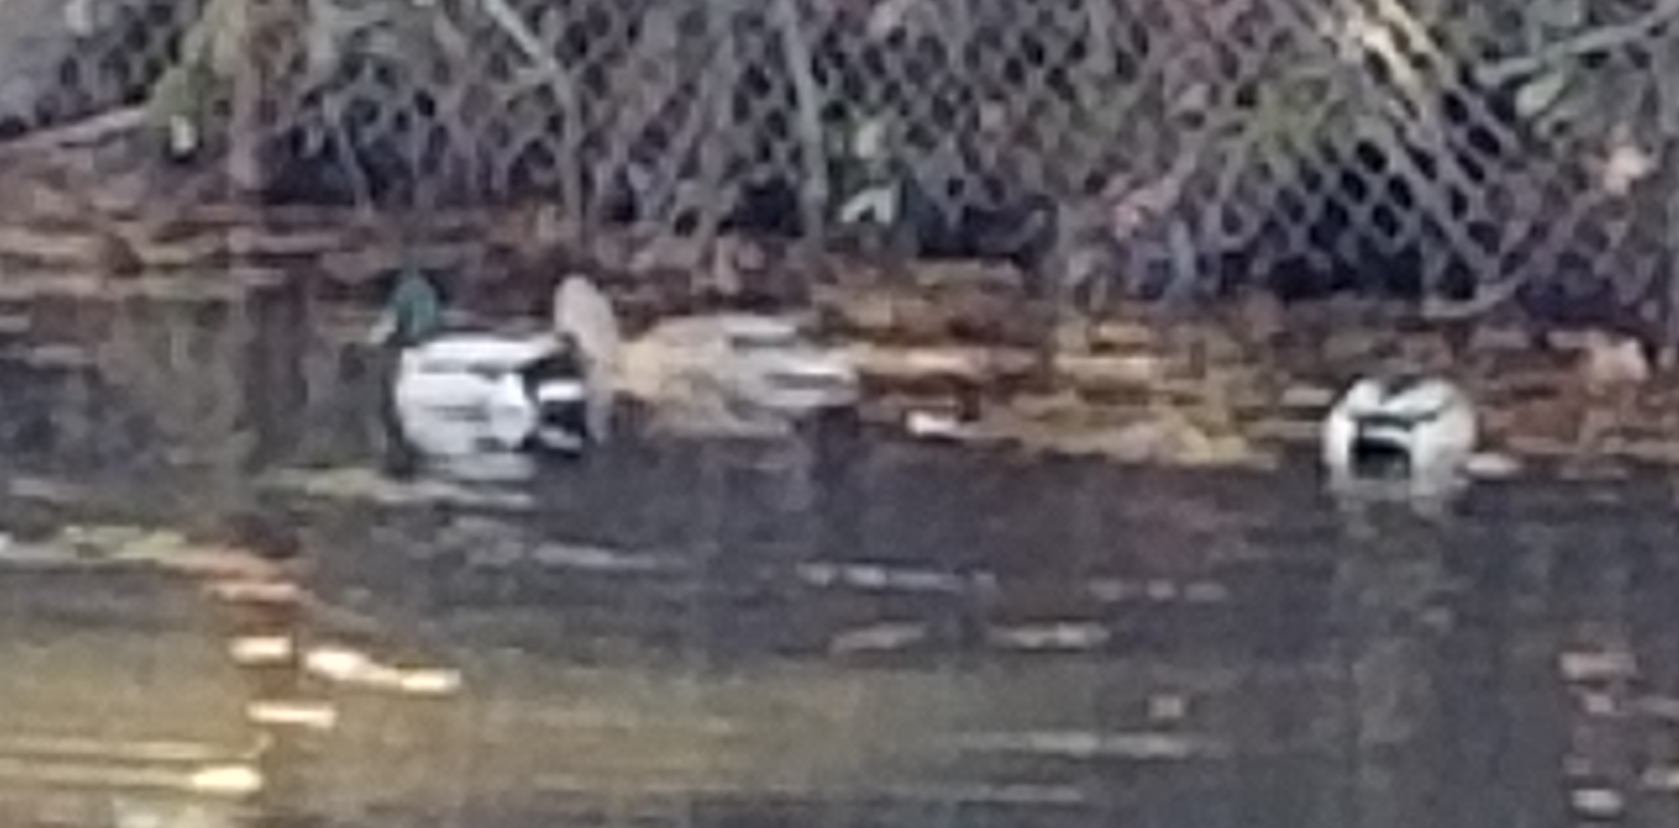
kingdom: Animalia
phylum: Chordata
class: Aves
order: Anseriformes
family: Anatidae
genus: Anas
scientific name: Anas platyrhynchos
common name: Mallard
